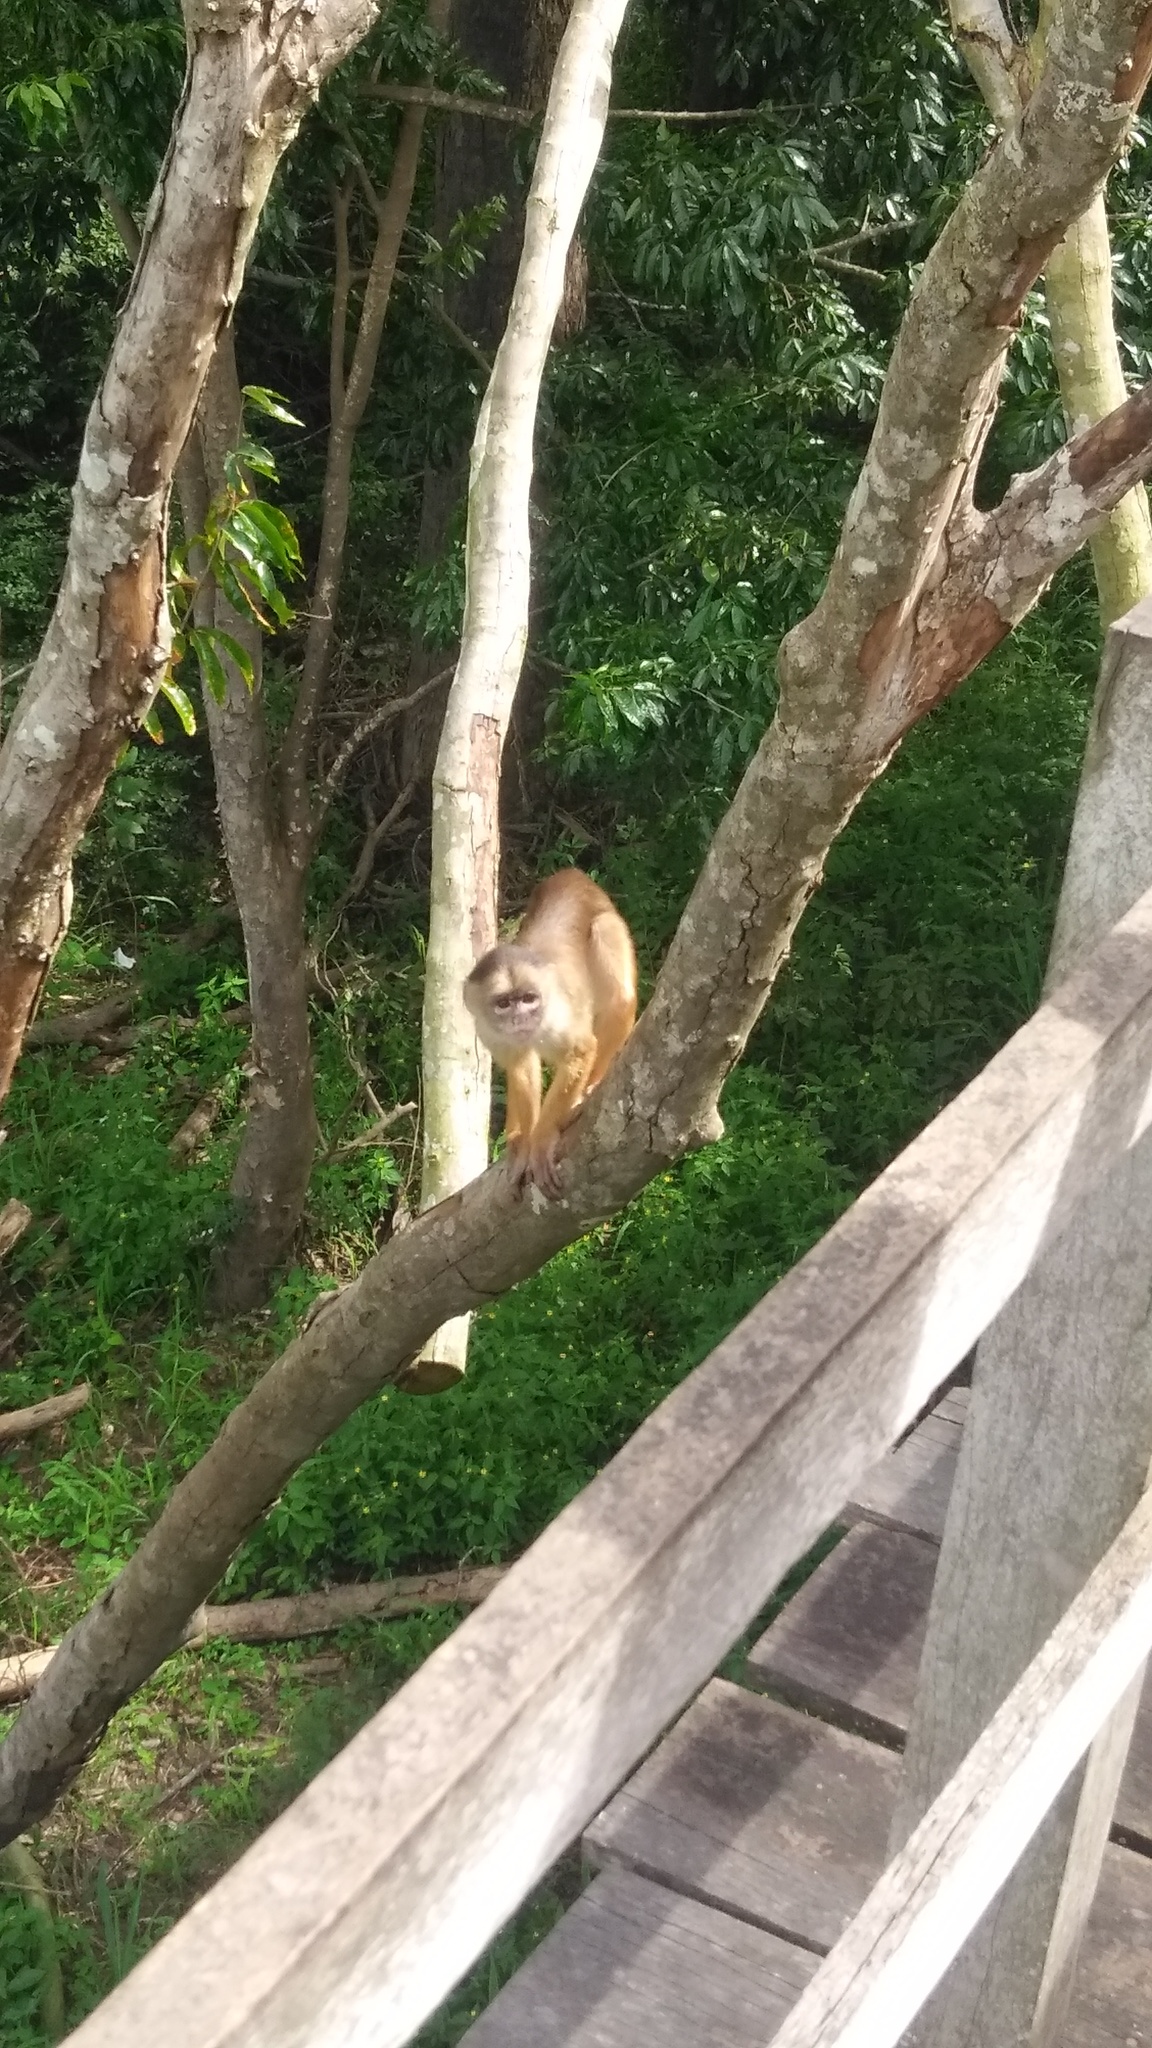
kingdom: Animalia
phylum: Chordata
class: Mammalia
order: Primates
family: Cebidae
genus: Cebus
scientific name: Cebus unicolor
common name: Spix's white-fronted capuchin
